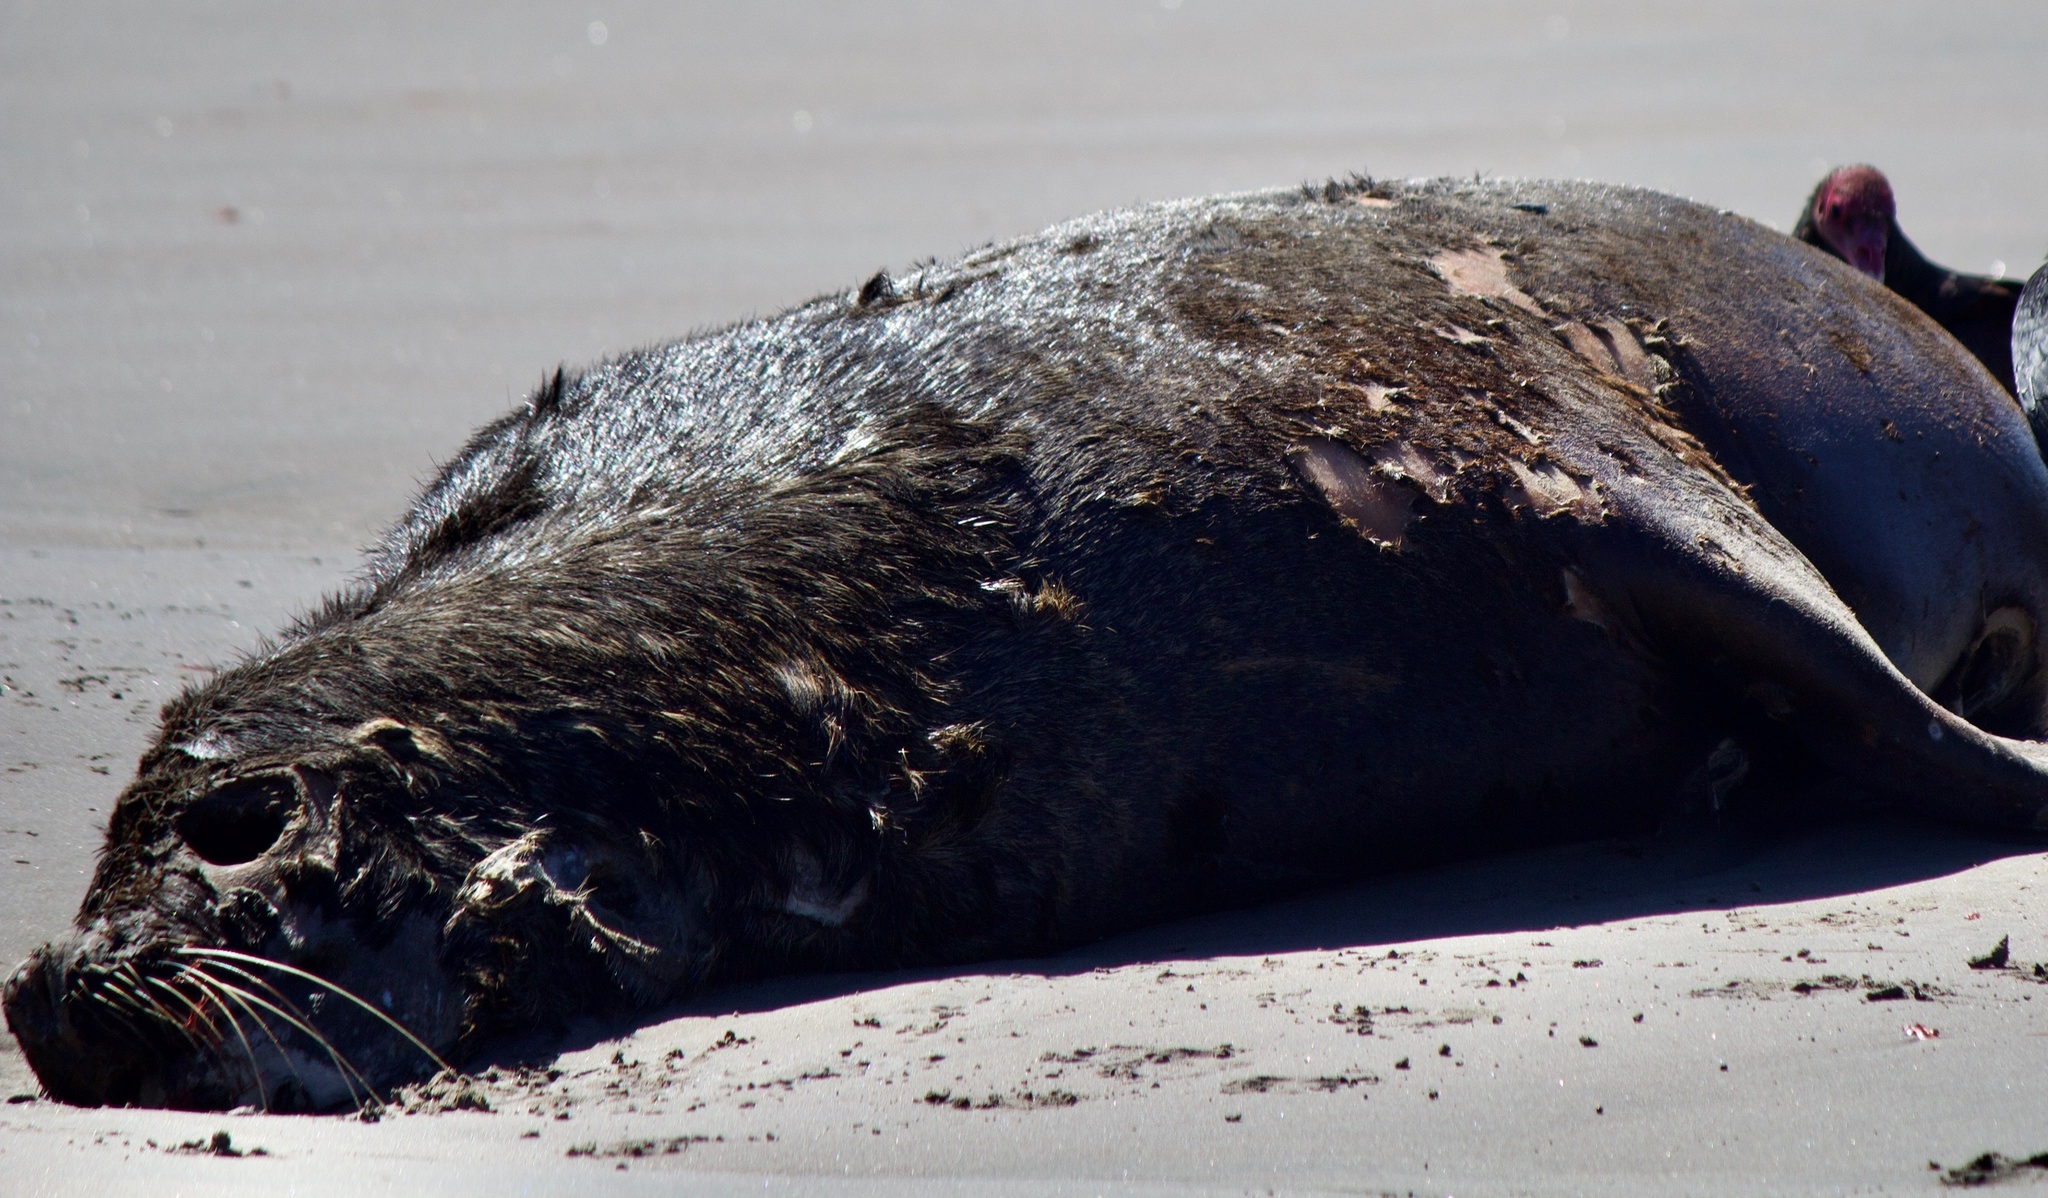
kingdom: Animalia
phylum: Chordata
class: Mammalia
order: Carnivora
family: Otariidae
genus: Otaria
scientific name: Otaria byronia
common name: South american sea lion
